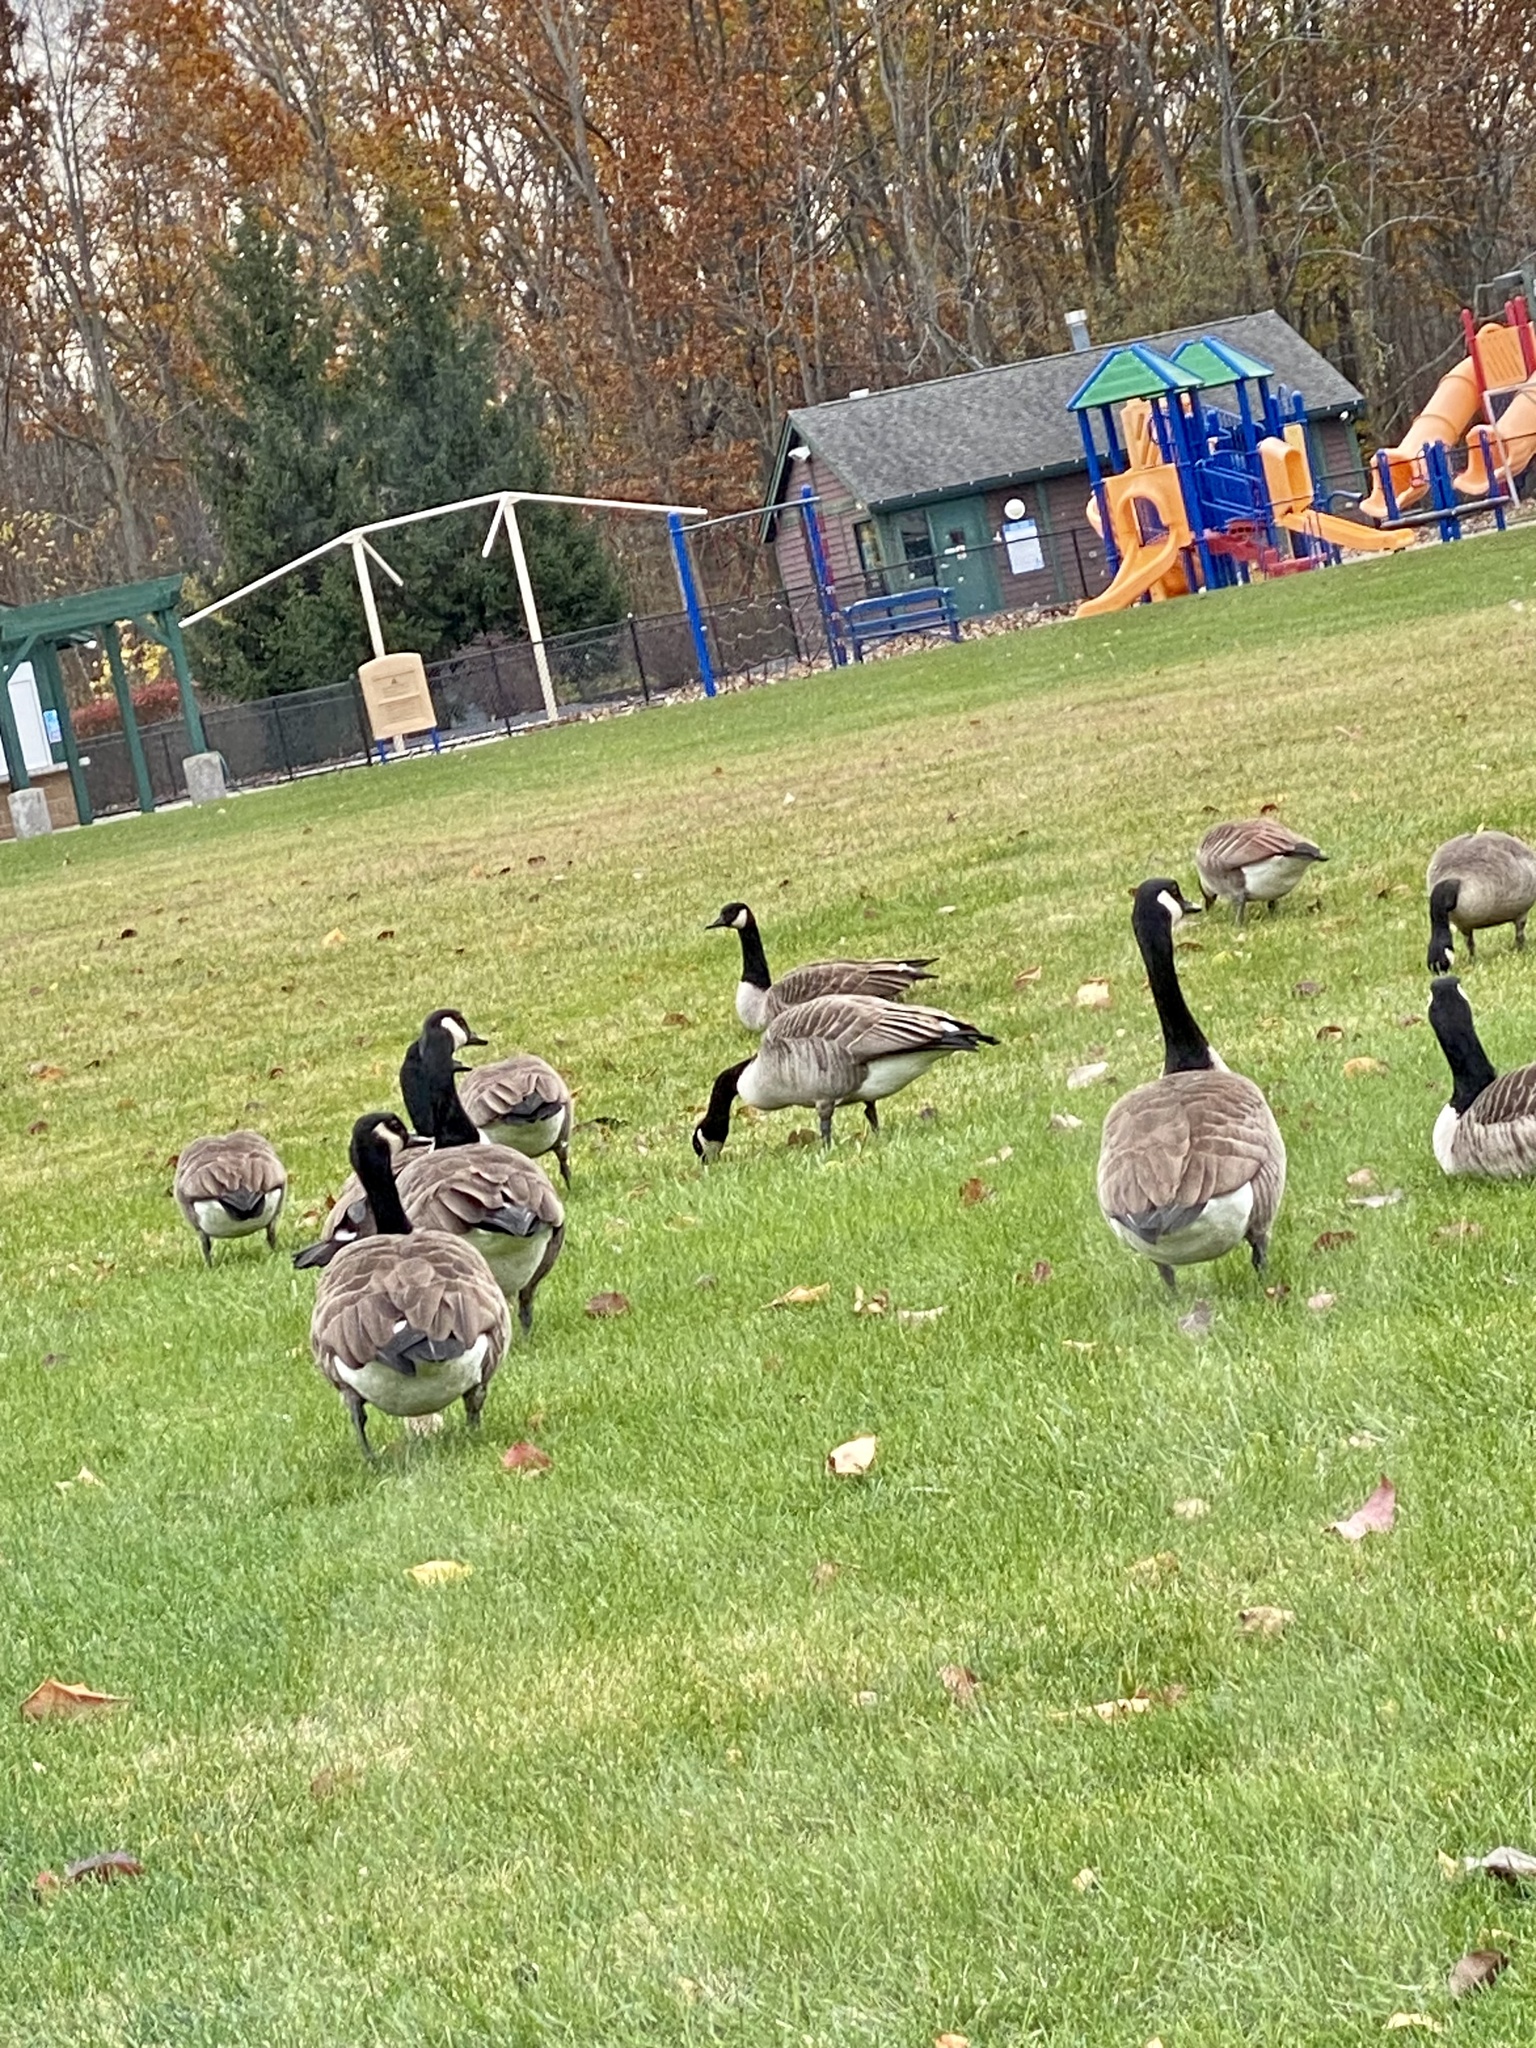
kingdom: Animalia
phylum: Chordata
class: Aves
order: Anseriformes
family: Anatidae
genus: Branta
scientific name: Branta canadensis
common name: Canada goose
